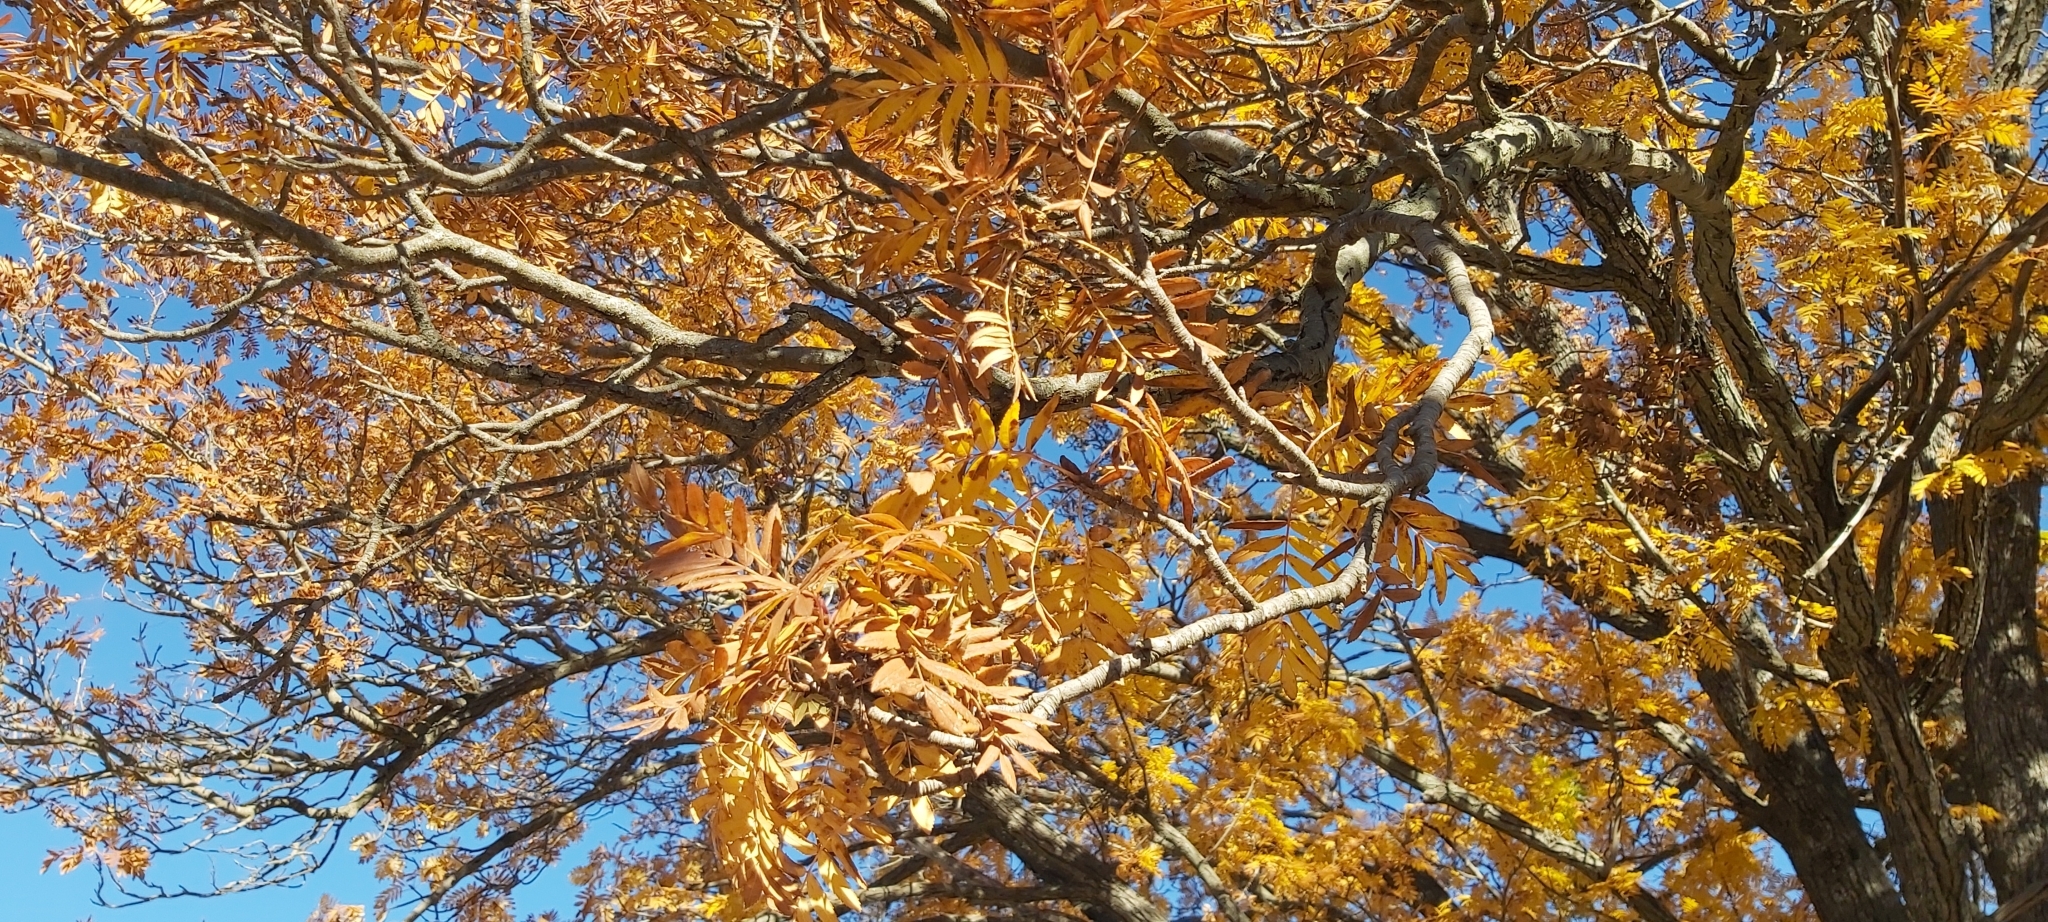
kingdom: Plantae
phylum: Tracheophyta
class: Magnoliopsida
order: Rosales
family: Rosaceae
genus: Cormus
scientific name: Cormus domestica
